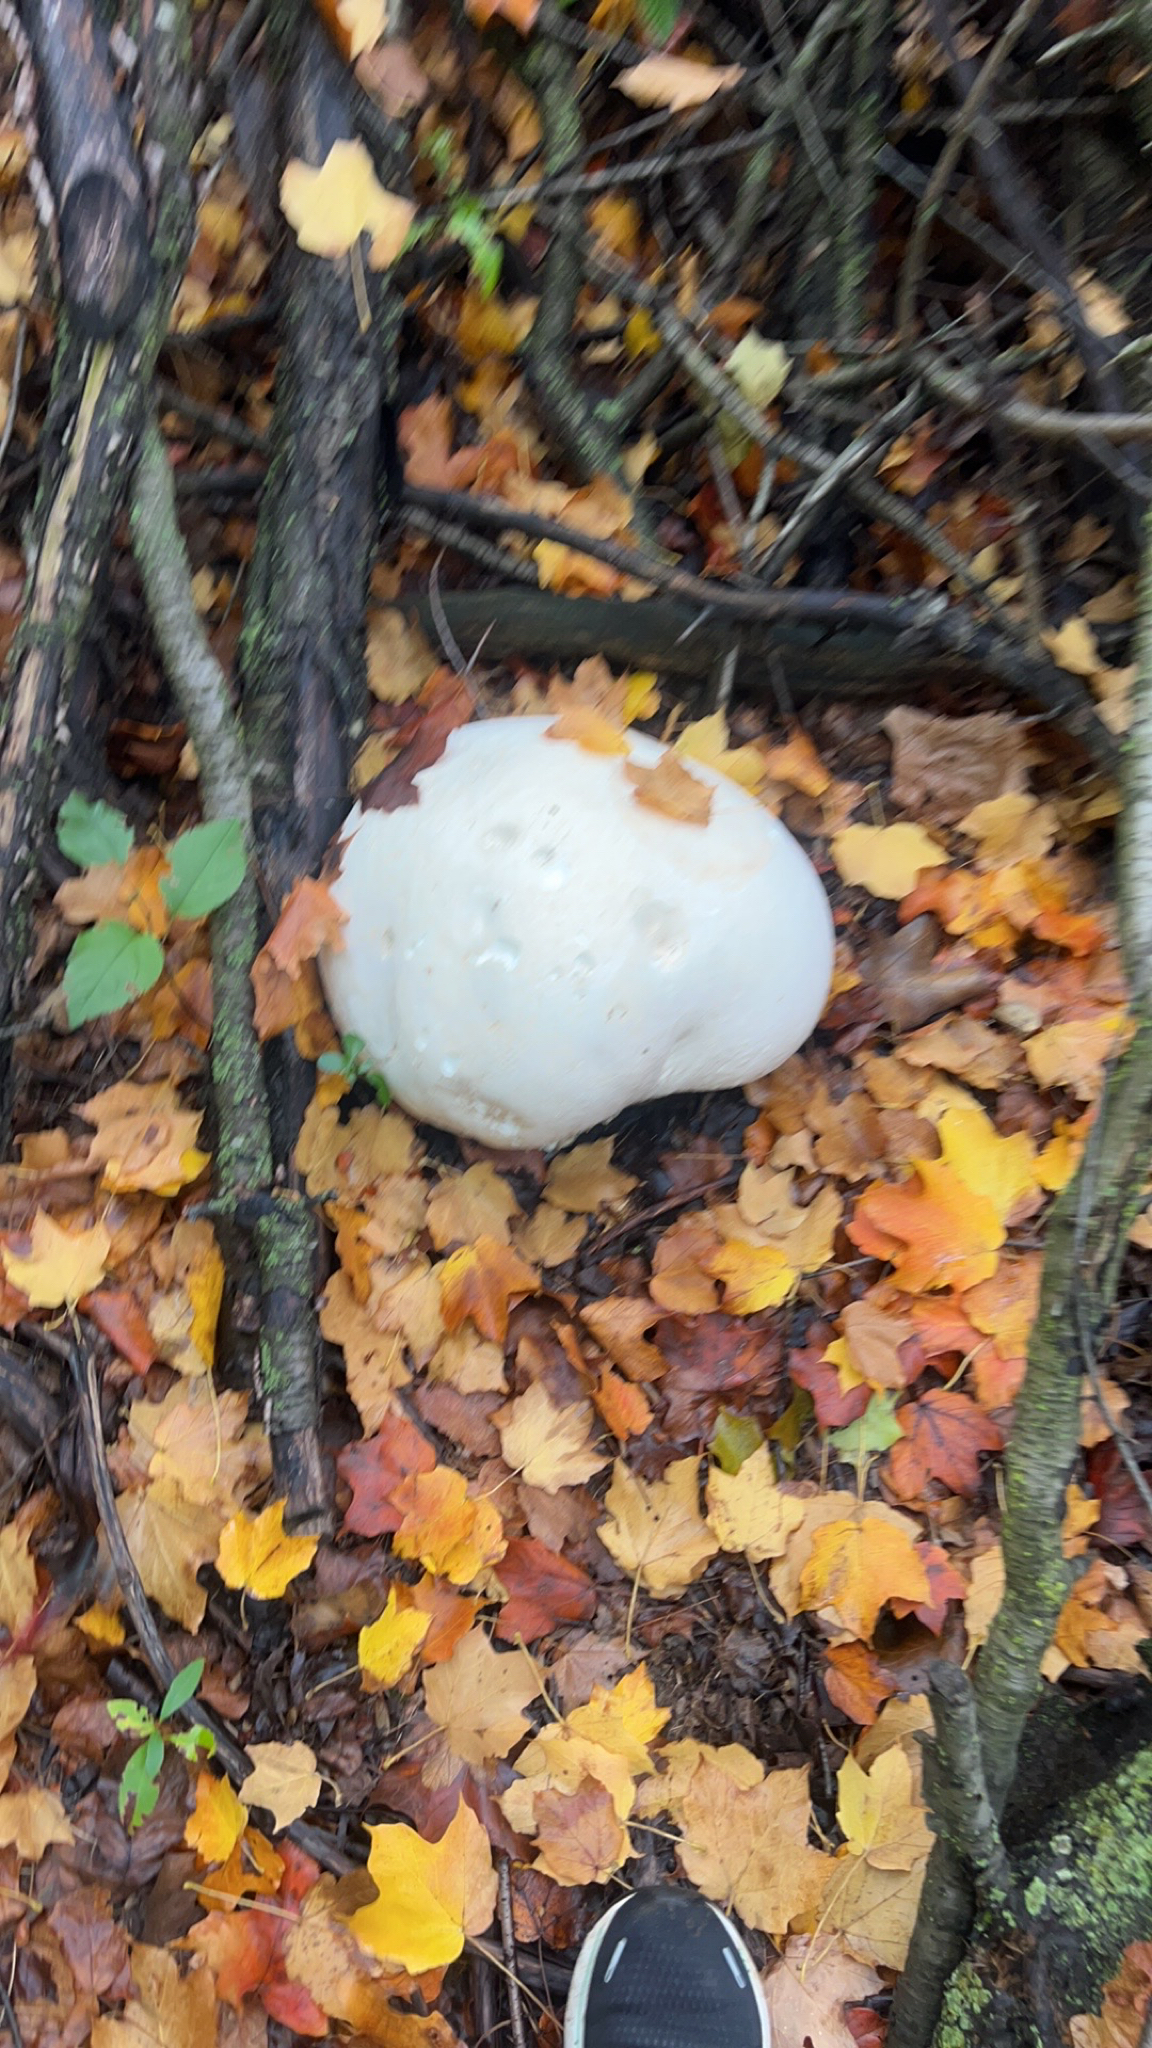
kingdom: Fungi
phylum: Basidiomycota
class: Agaricomycetes
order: Agaricales
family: Lycoperdaceae
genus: Calvatia
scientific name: Calvatia gigantea
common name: Giant puffball
